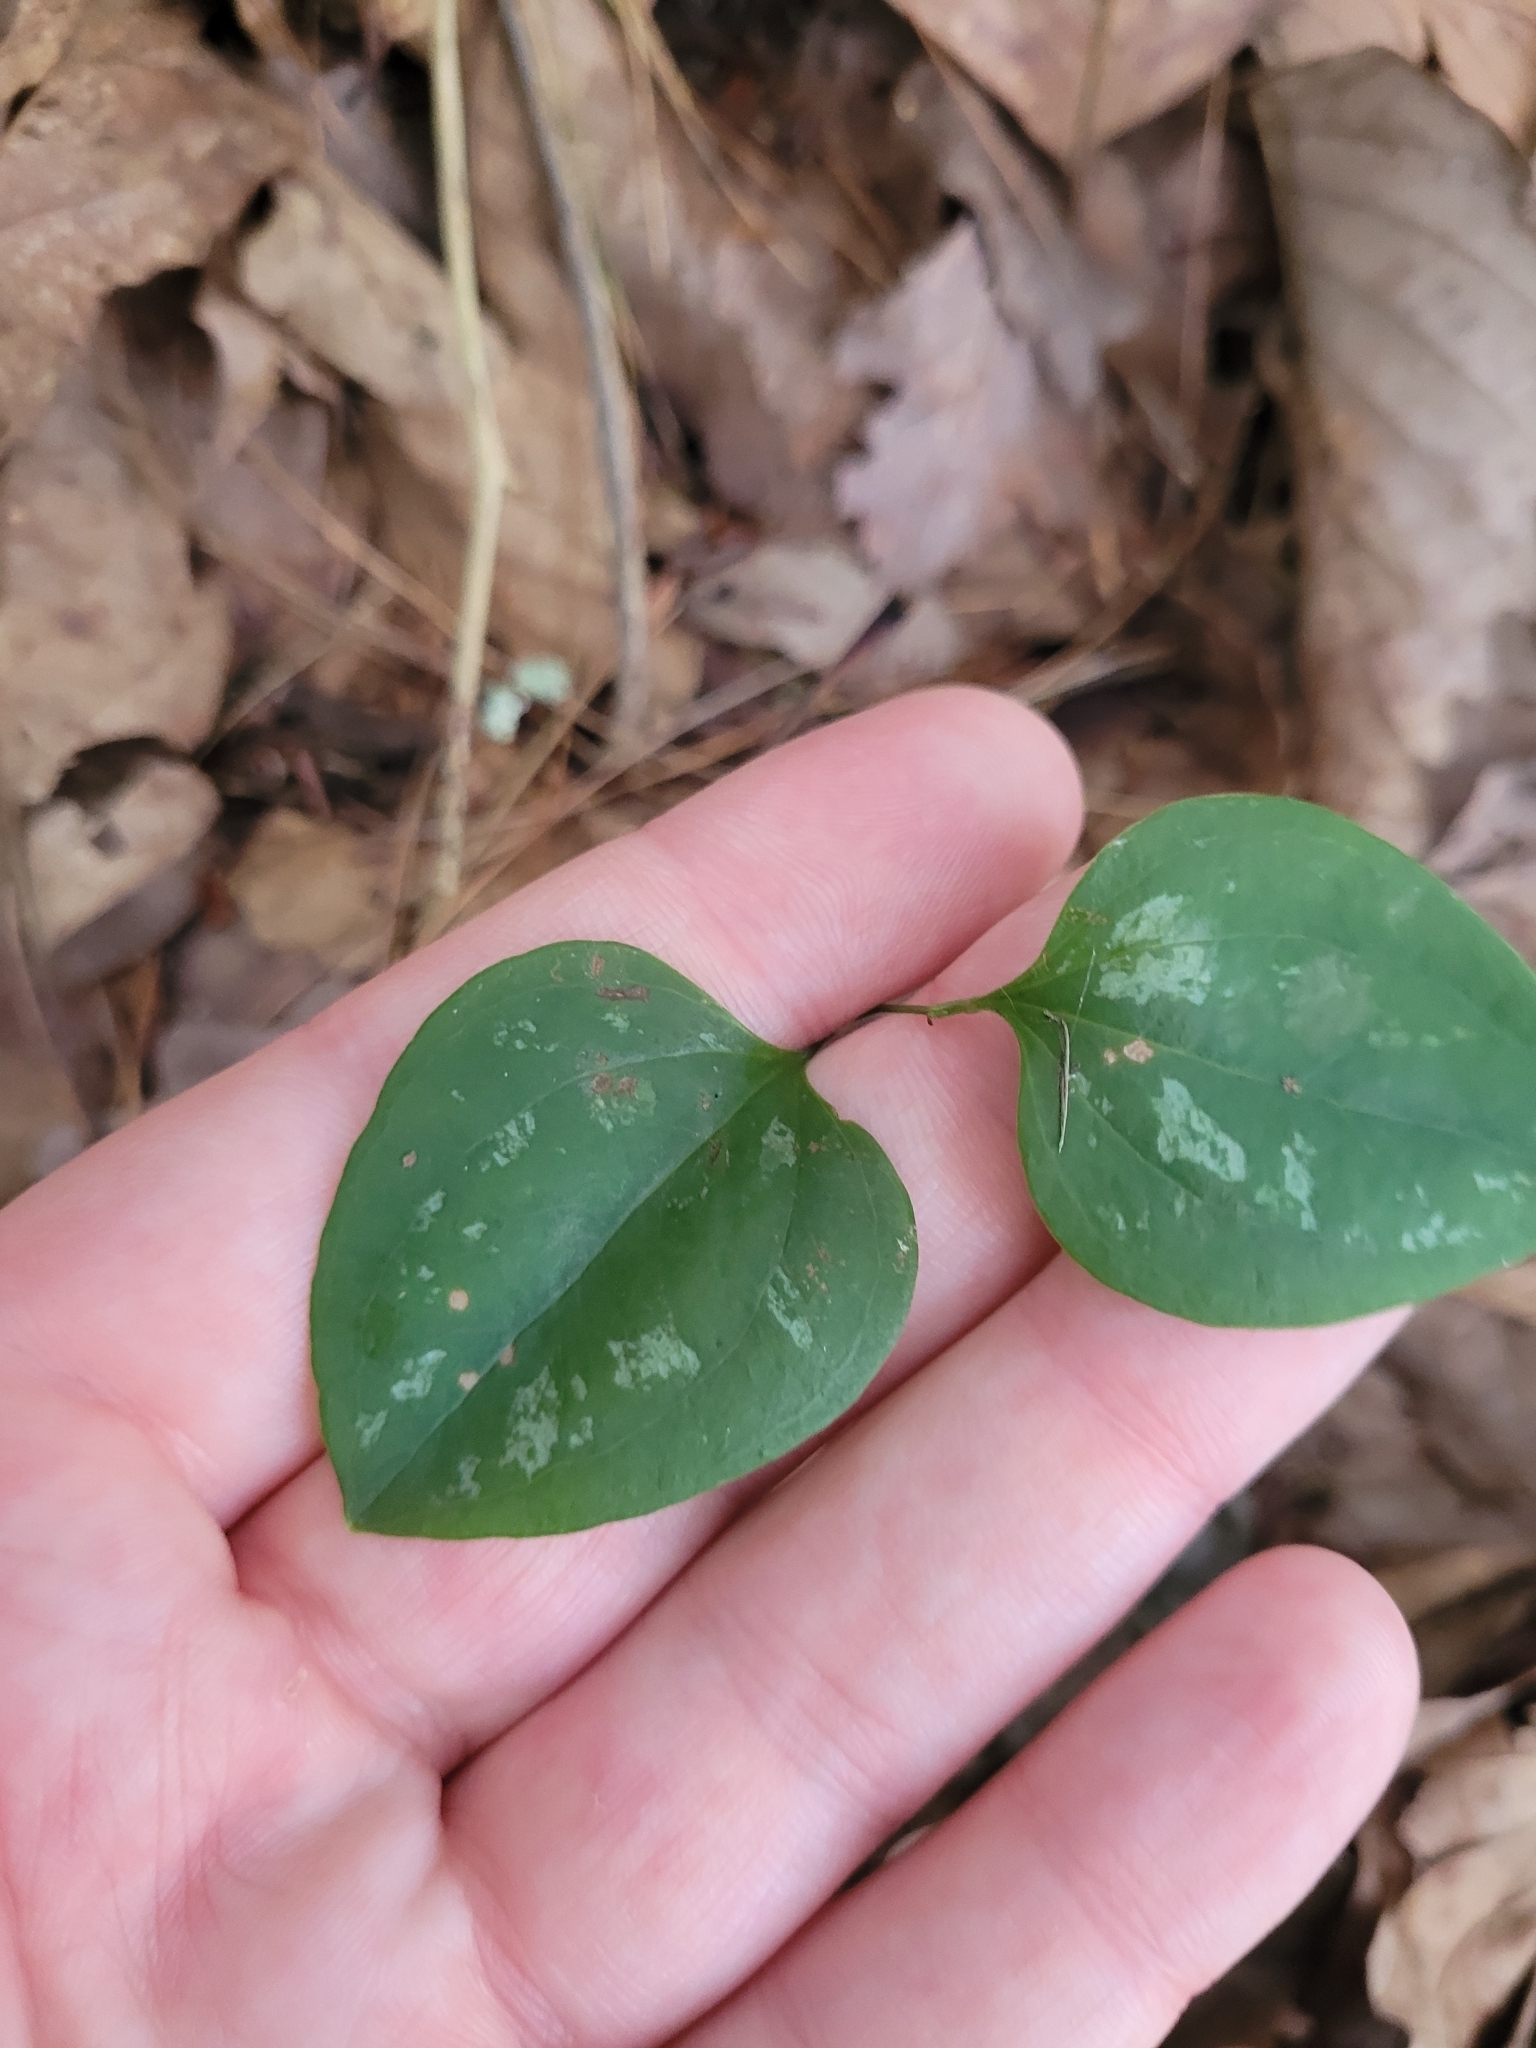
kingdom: Plantae
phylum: Tracheophyta
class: Liliopsida
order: Liliales
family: Smilacaceae
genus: Smilax
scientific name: Smilax glauca
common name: Cat greenbrier
